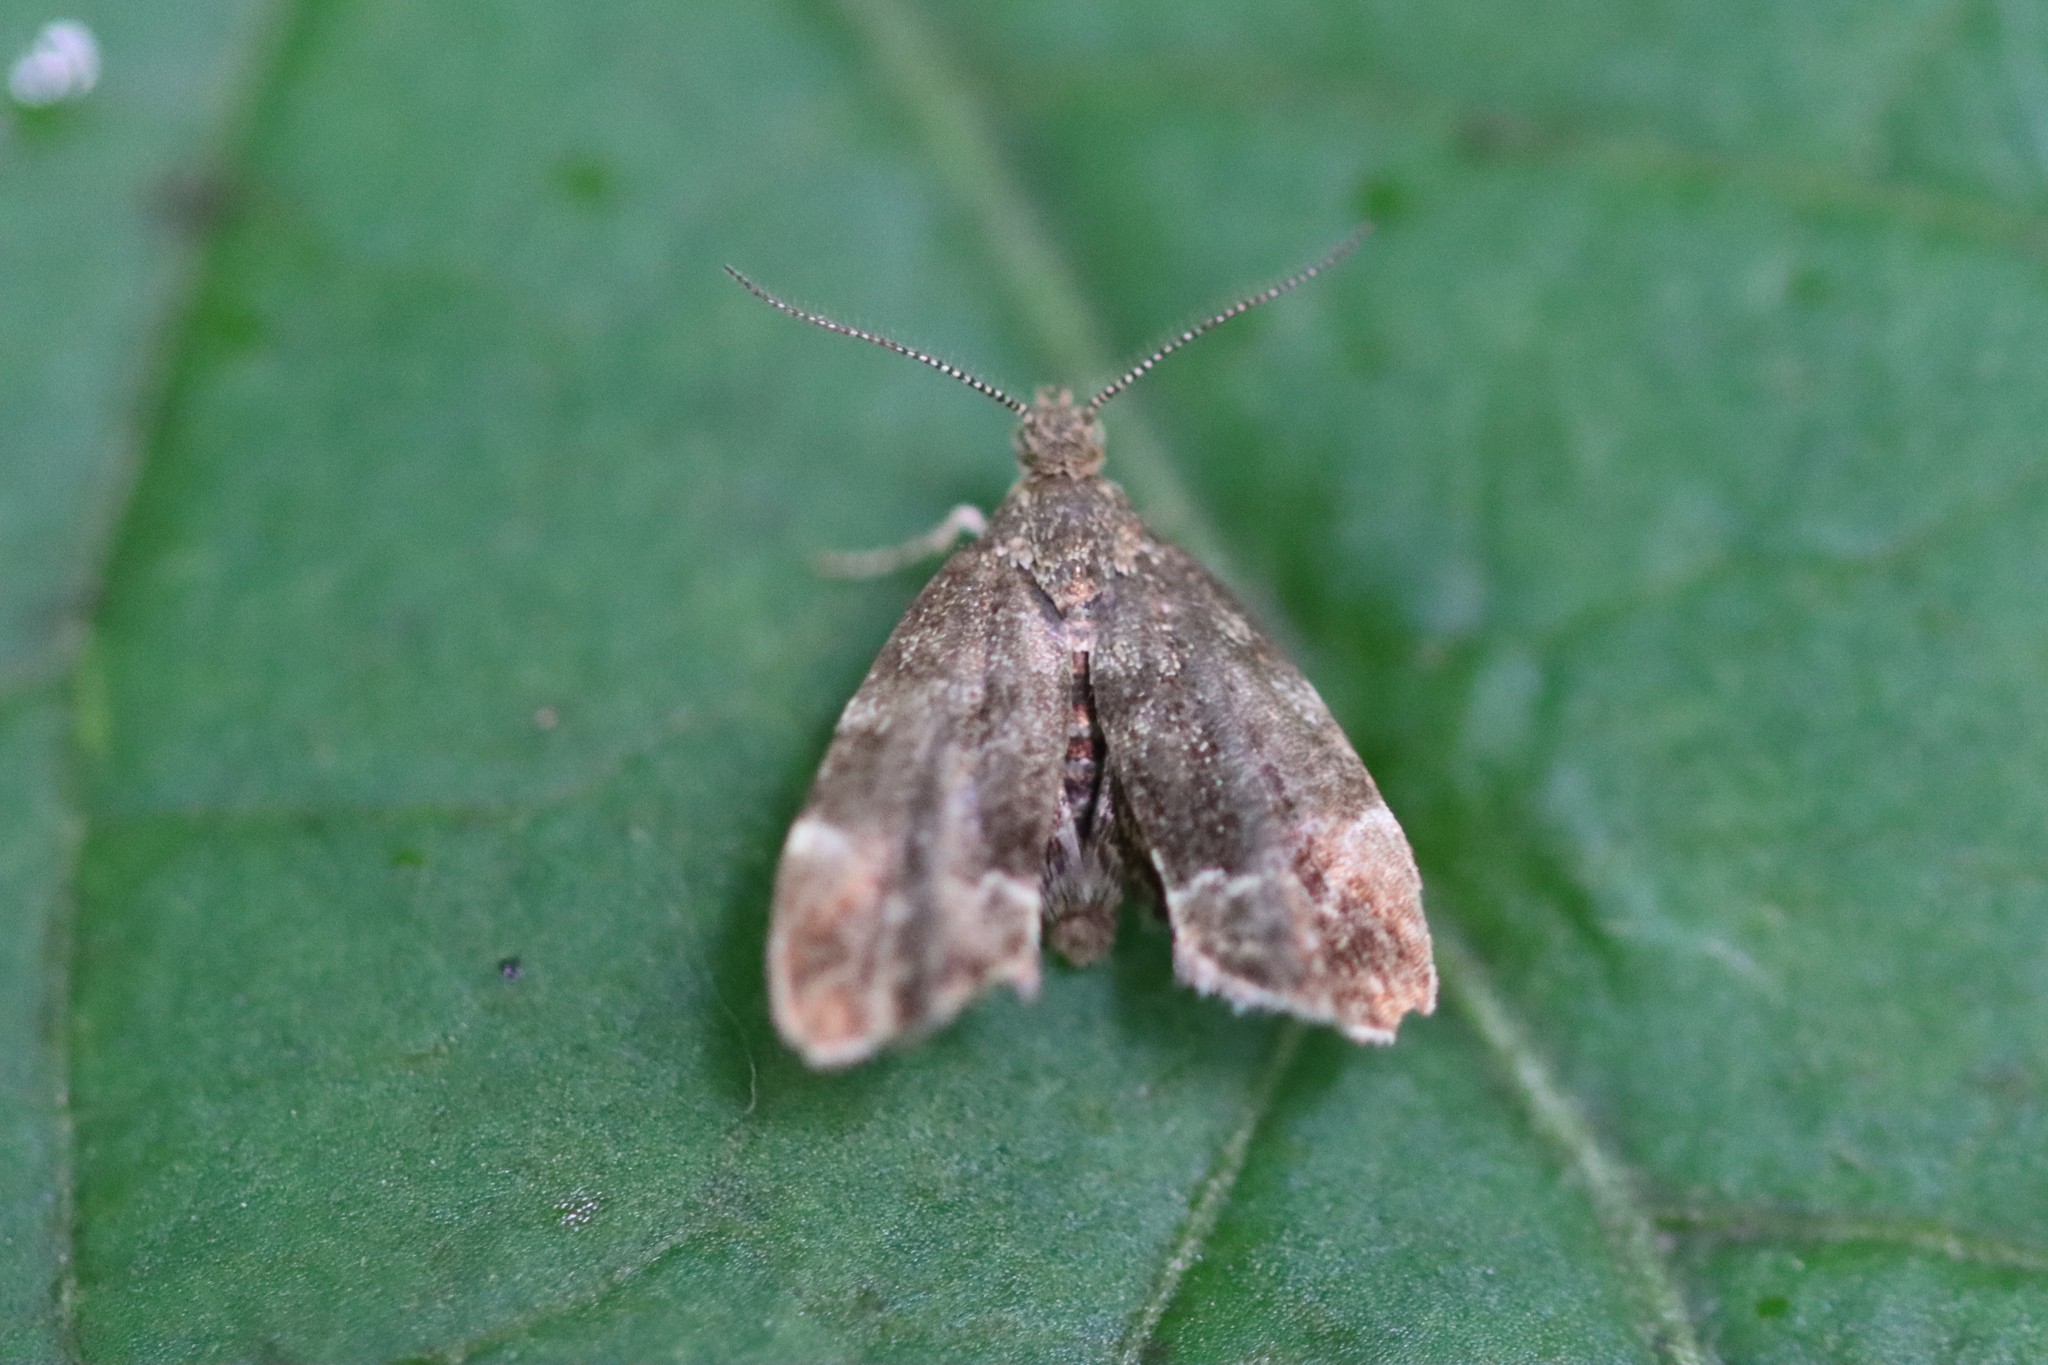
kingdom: Animalia
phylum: Arthropoda
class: Insecta
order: Lepidoptera
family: Choreutidae
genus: Anthophila
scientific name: Anthophila fabriciana
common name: Nettle-tap
